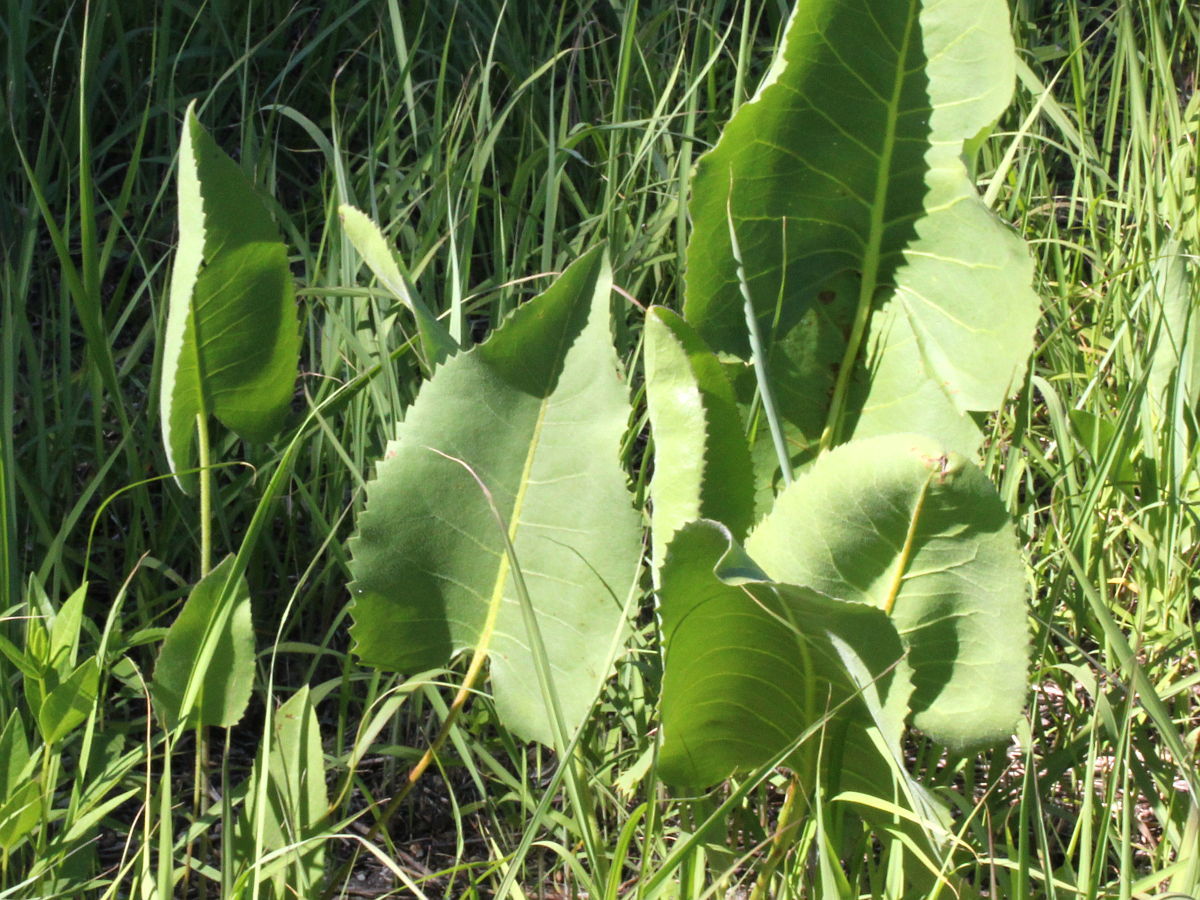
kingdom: Plantae
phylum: Tracheophyta
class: Magnoliopsida
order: Asterales
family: Asteraceae
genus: Silphium
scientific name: Silphium terebinthinaceum
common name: Basal-leaf rosinweed
